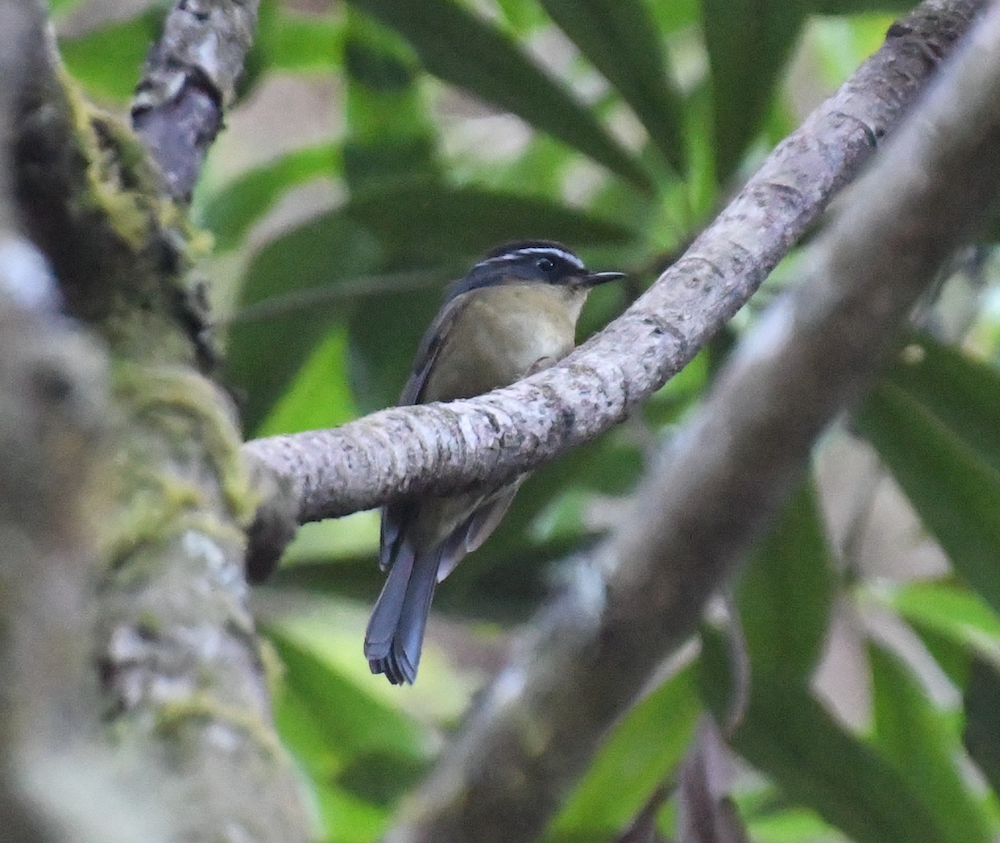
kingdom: Animalia
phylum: Chordata
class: Aves
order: Passeriformes
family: Muscicapidae
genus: Tarsiger
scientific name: Tarsiger indicus
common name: White-browed bush robin
